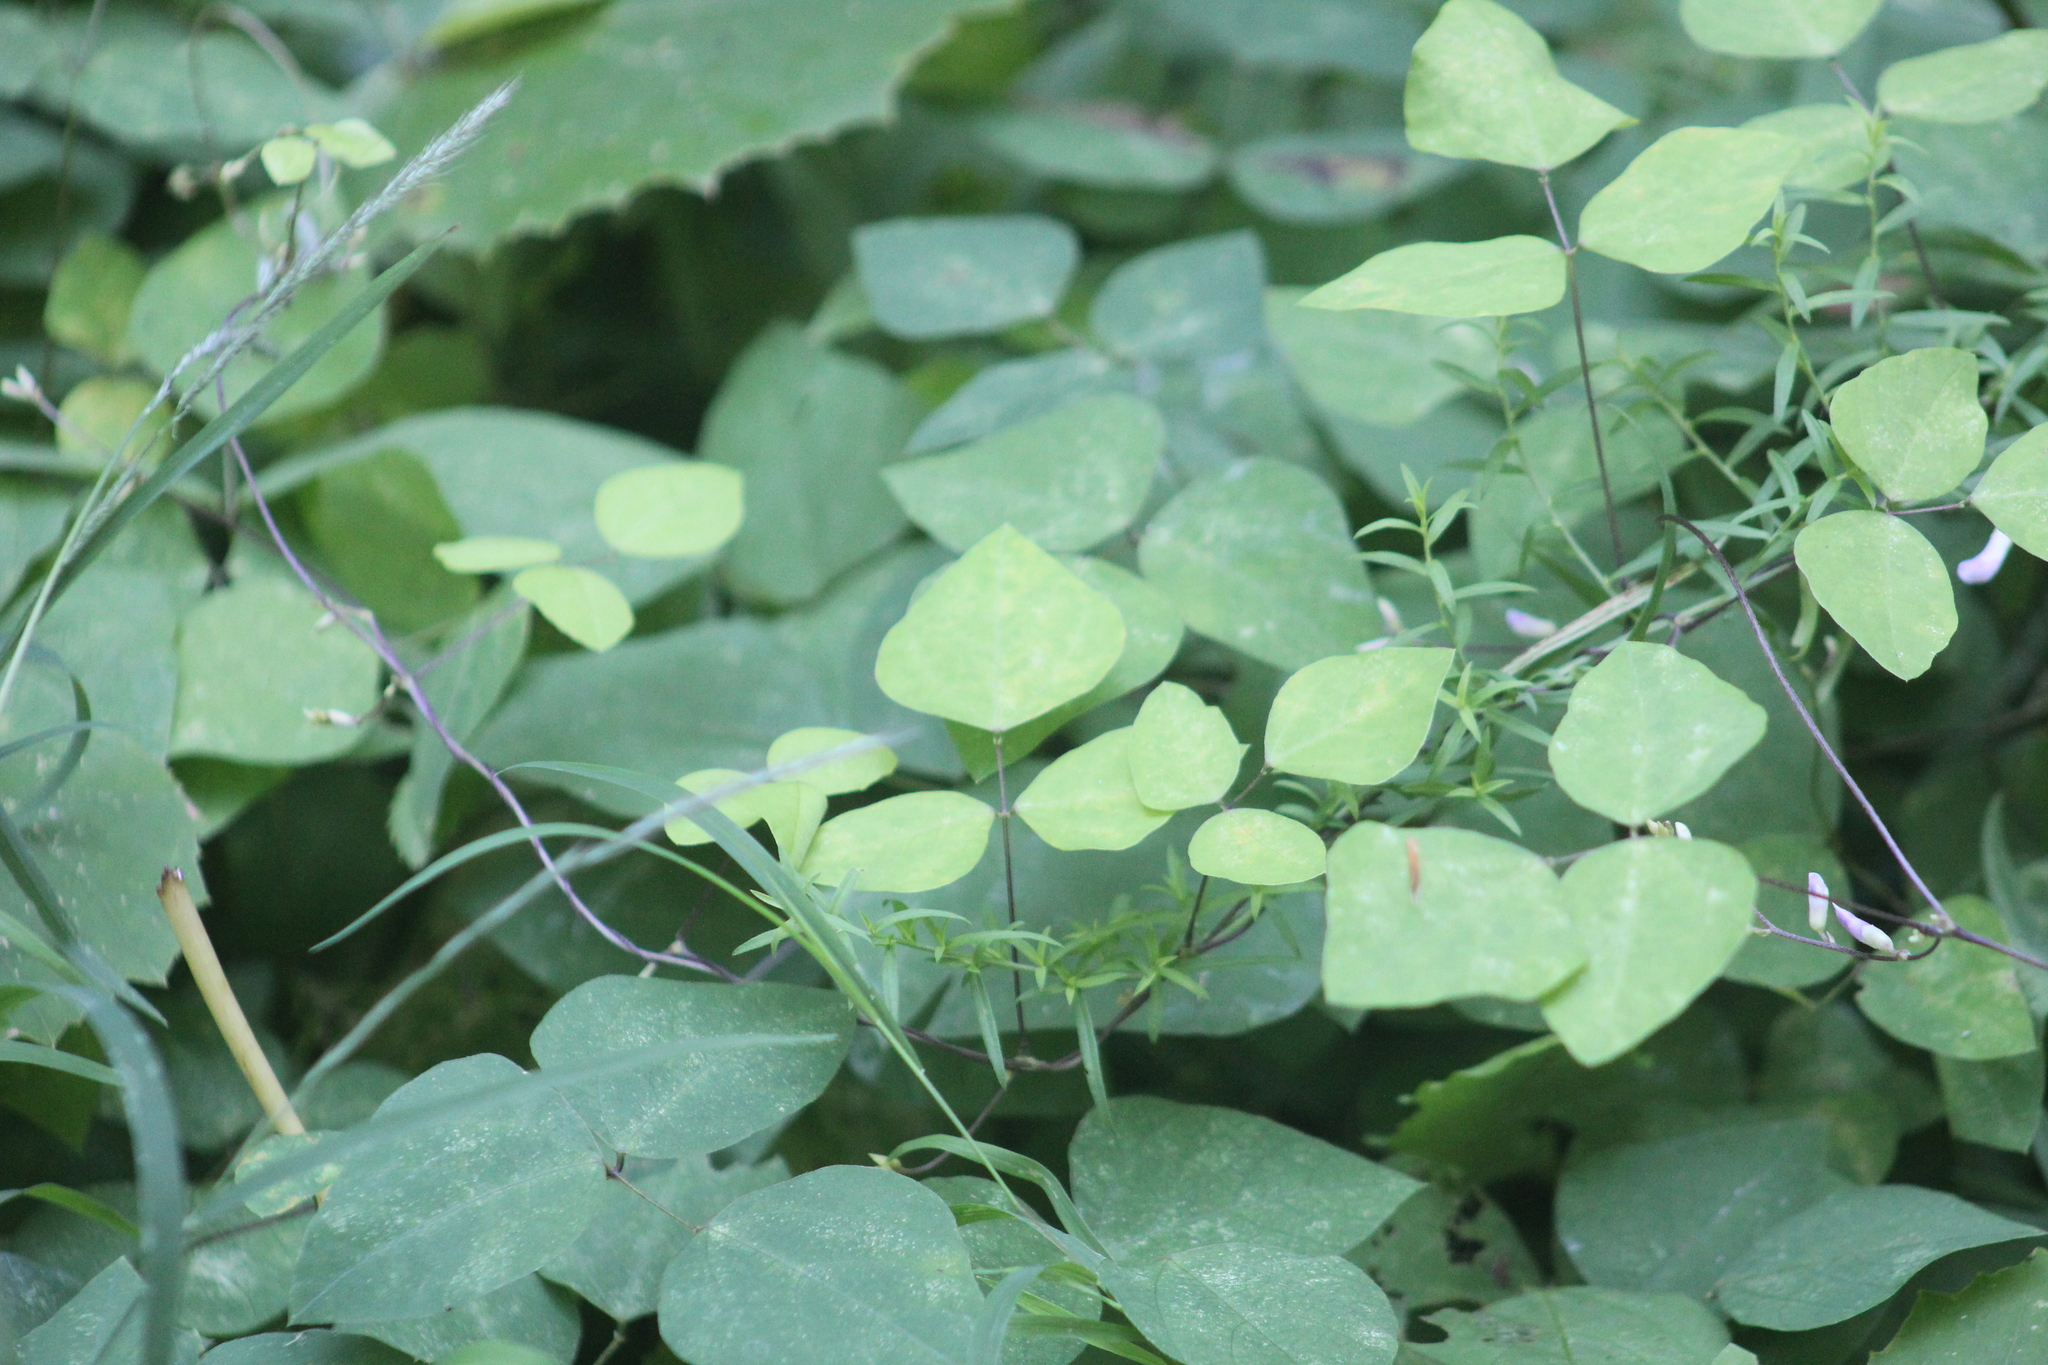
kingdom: Plantae
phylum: Tracheophyta
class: Magnoliopsida
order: Fabales
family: Fabaceae
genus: Amphicarpaea
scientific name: Amphicarpaea bracteata
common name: American hog peanut
